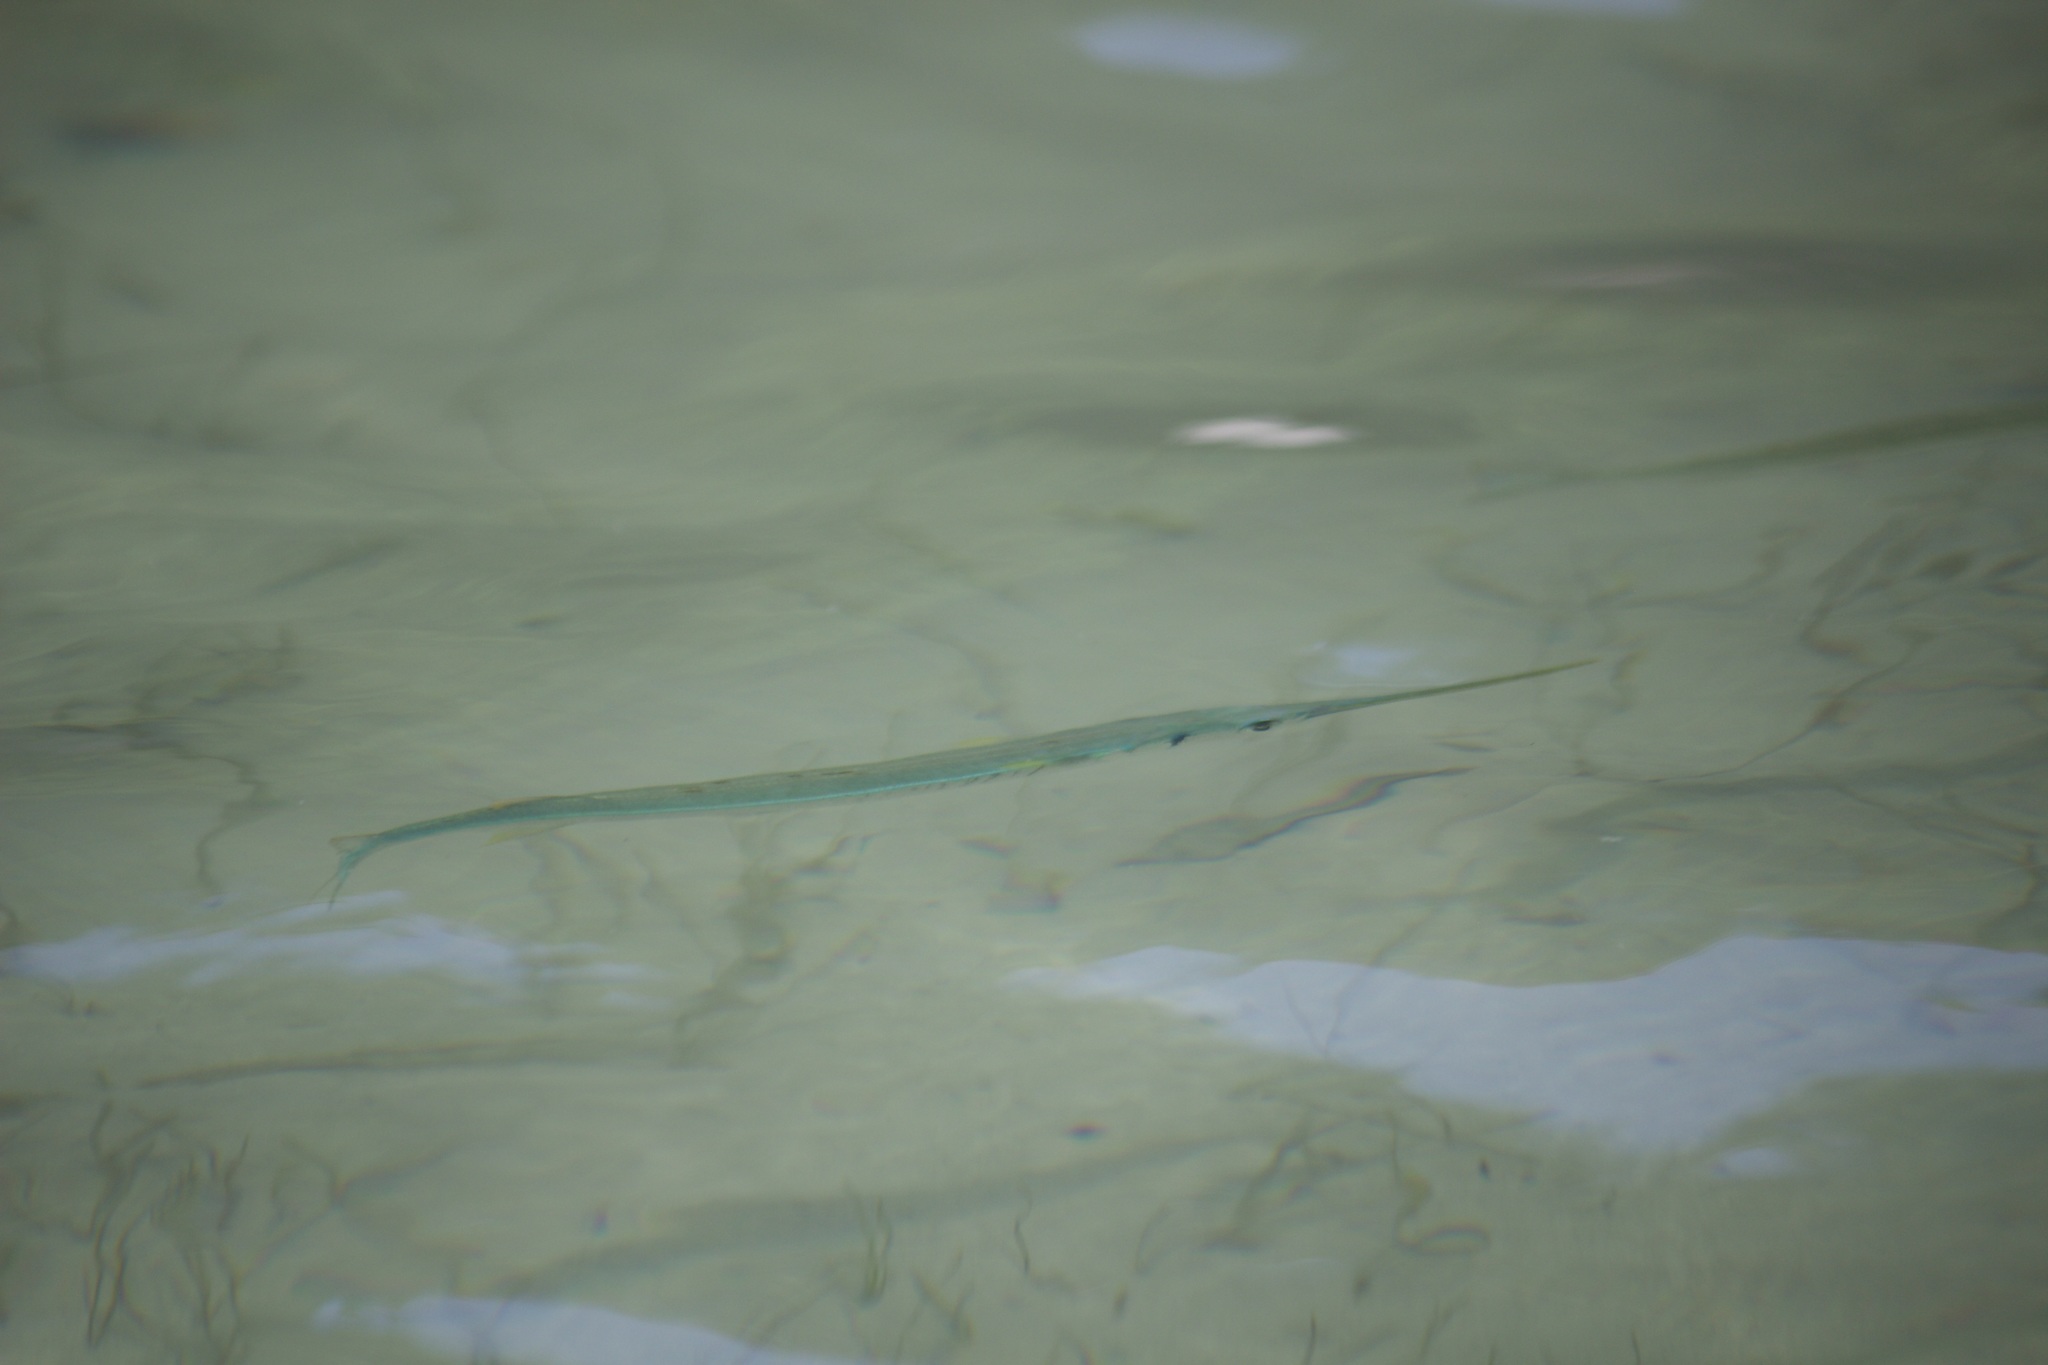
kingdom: Animalia
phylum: Chordata
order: Beloniformes
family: Belonidae
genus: Strongylura
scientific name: Strongylura notata
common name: Redfin needlefish
